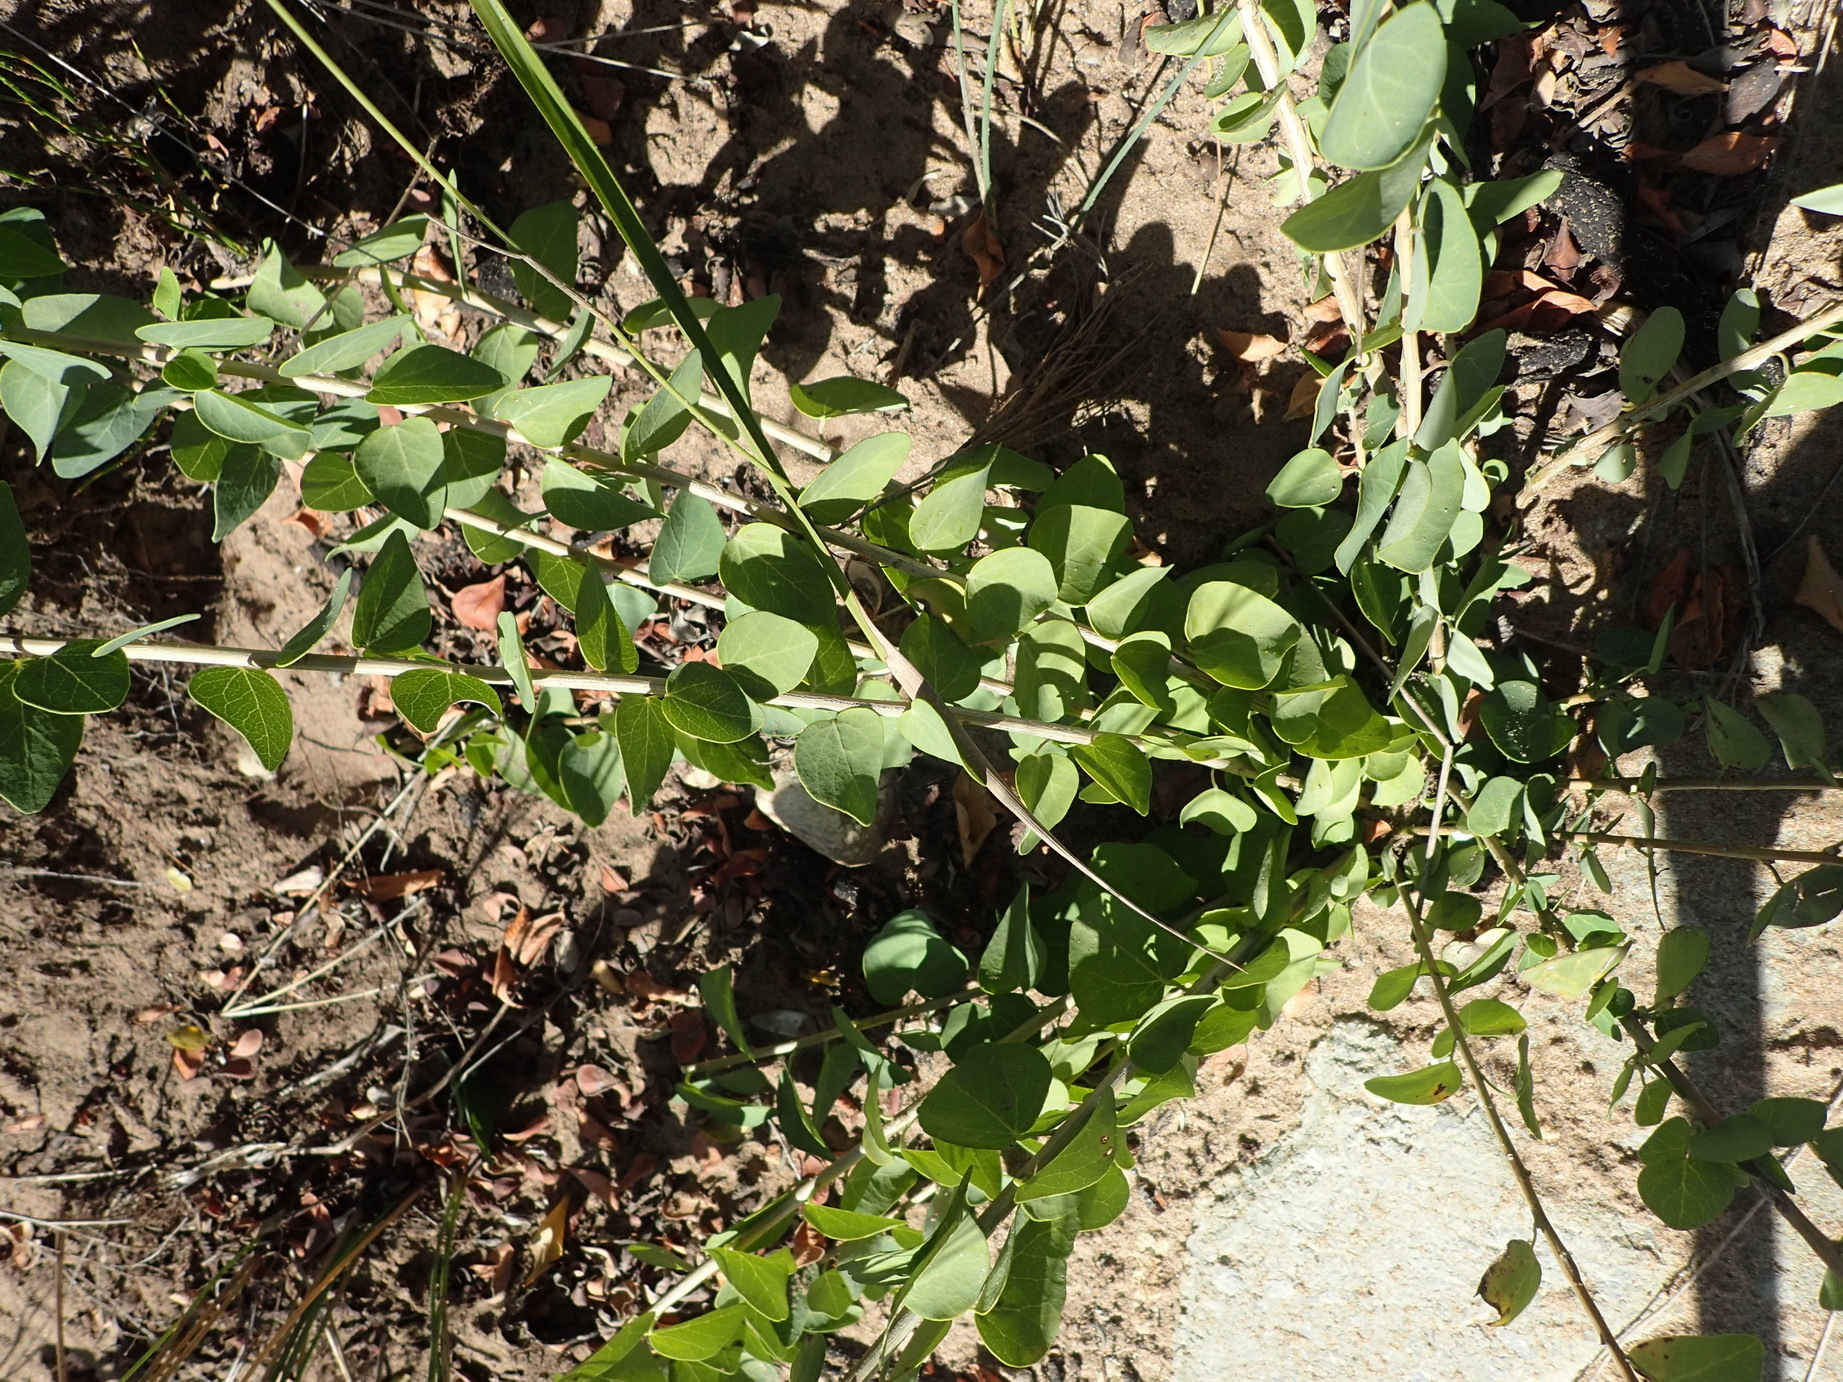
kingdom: Plantae
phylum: Tracheophyta
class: Magnoliopsida
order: Ranunculales
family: Menispermaceae
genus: Cissampelos
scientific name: Cissampelos capensis
